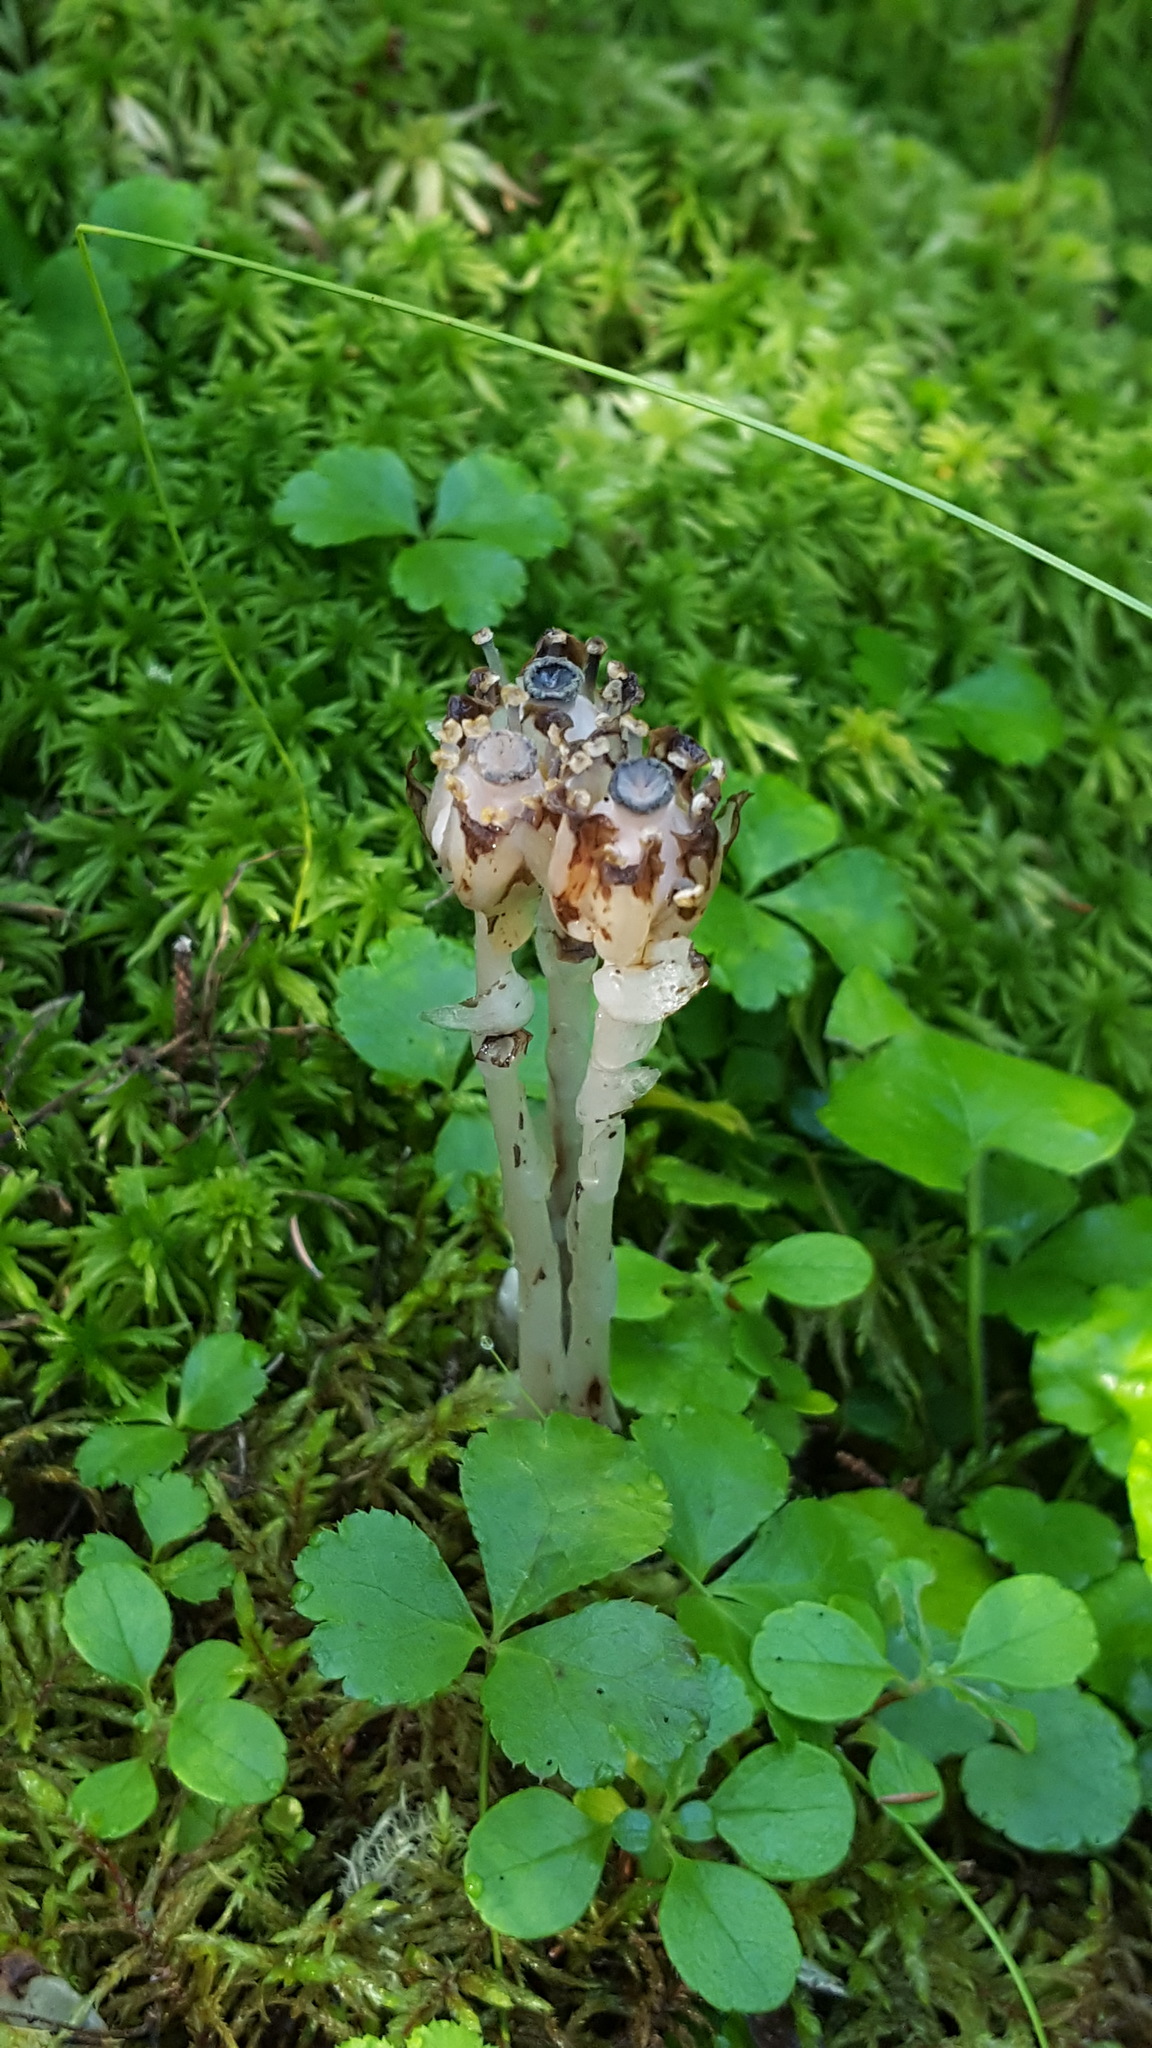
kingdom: Plantae
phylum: Tracheophyta
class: Magnoliopsida
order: Ericales
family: Ericaceae
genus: Monotropa
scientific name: Monotropa uniflora
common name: Convulsion root
